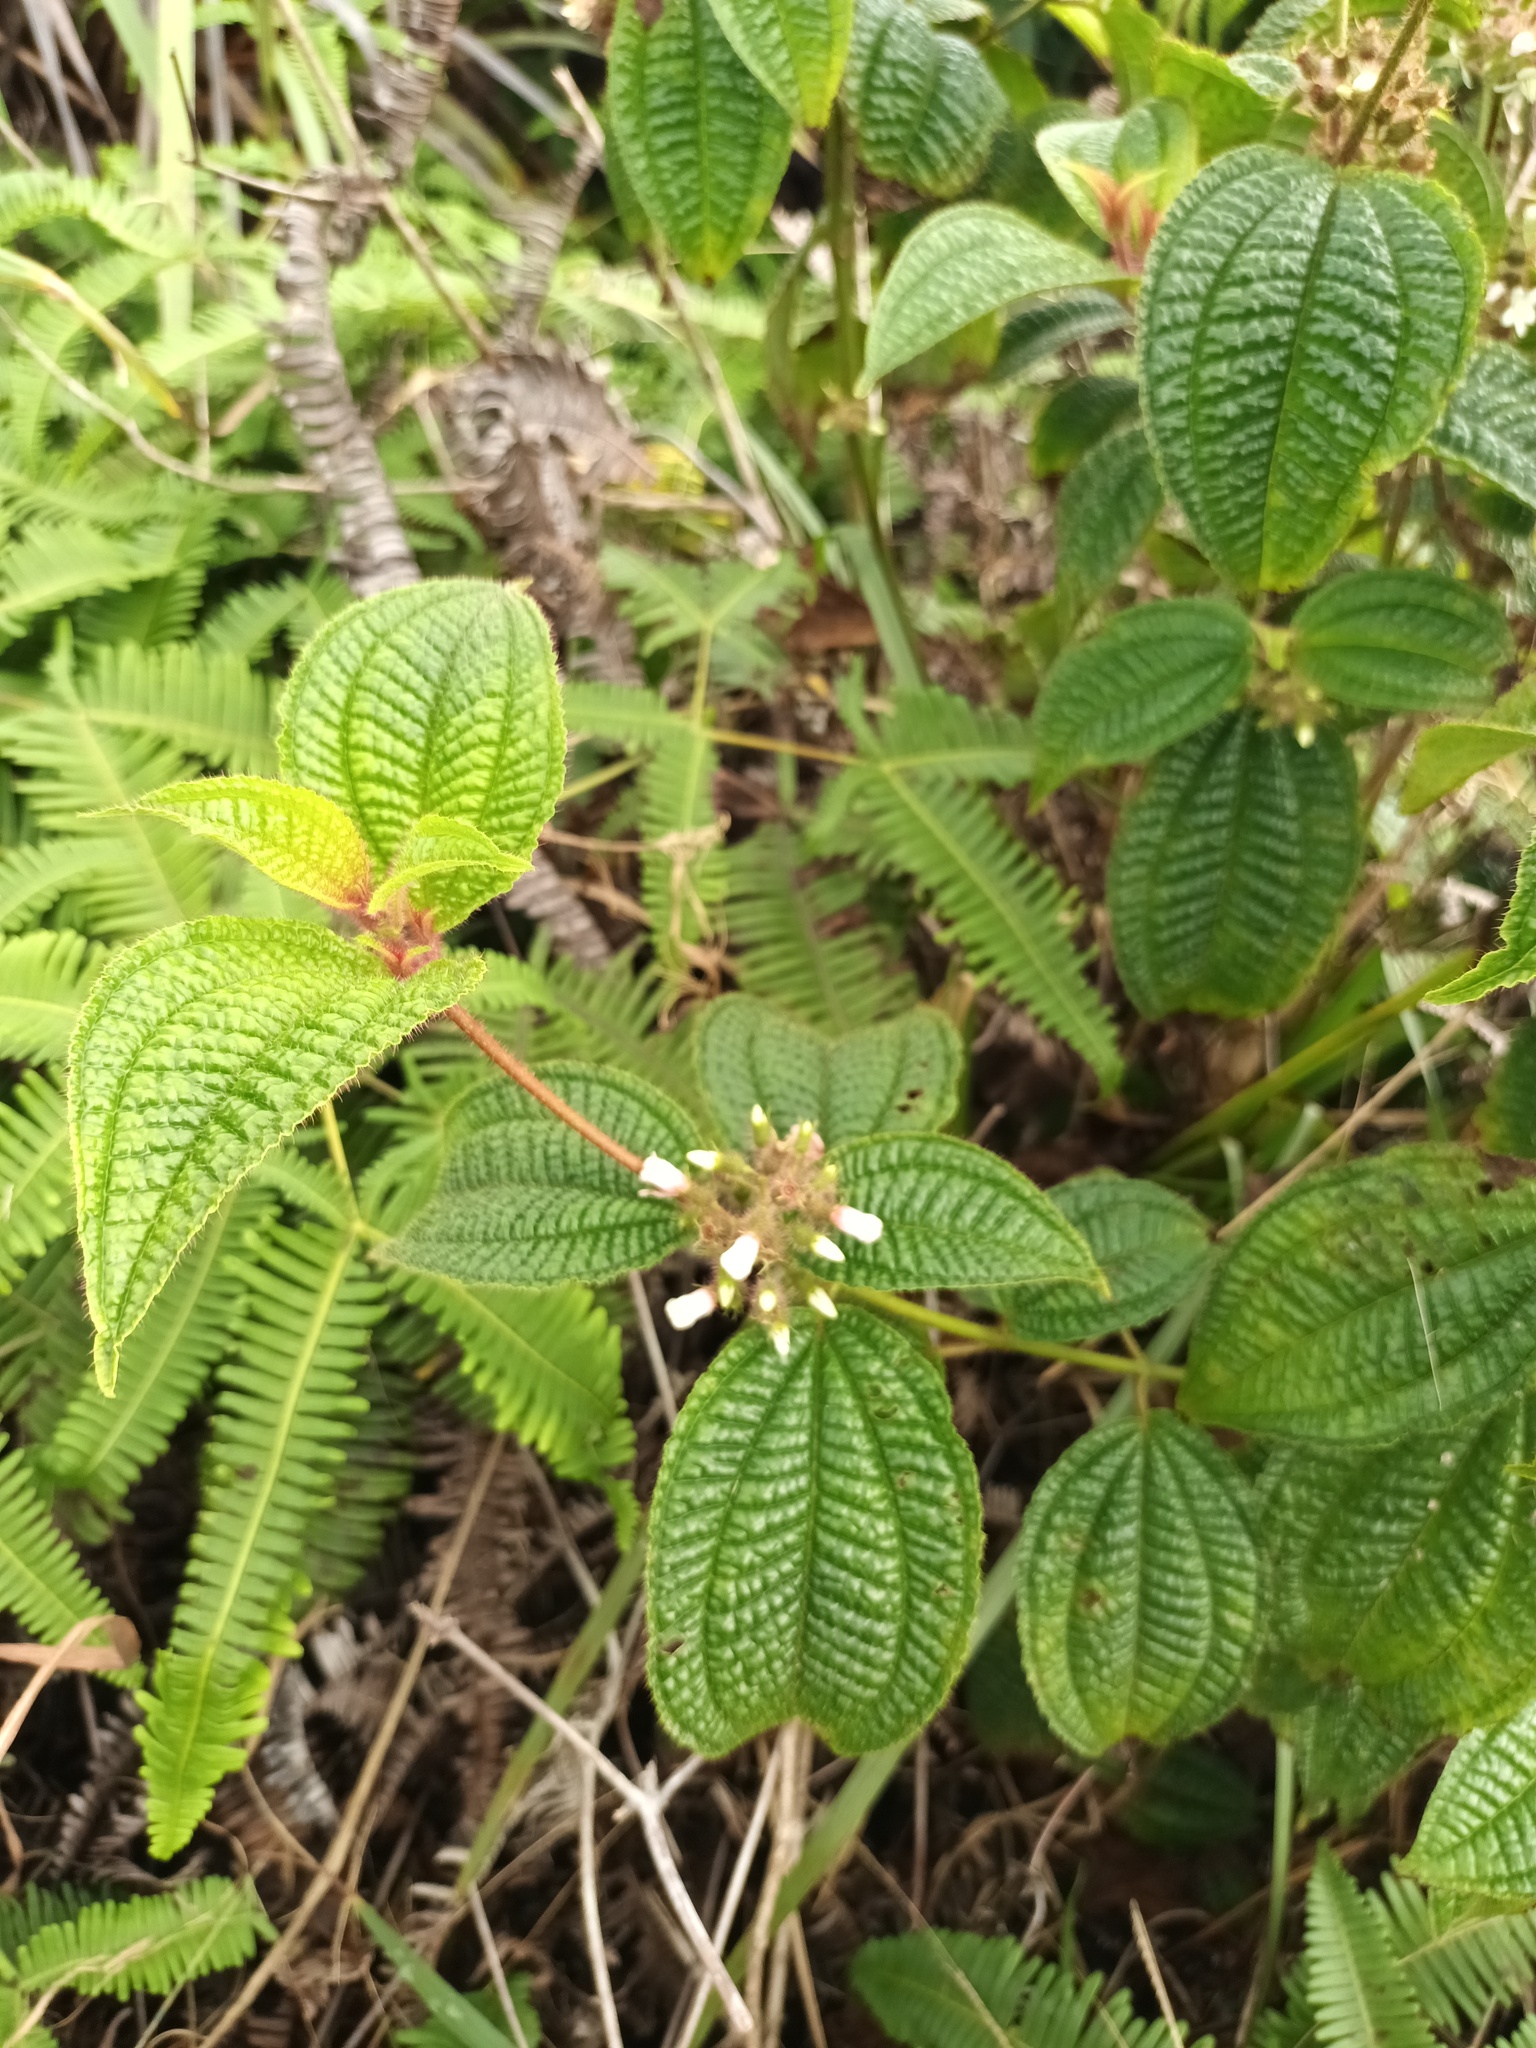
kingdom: Plantae
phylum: Tracheophyta
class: Magnoliopsida
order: Myrtales
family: Melastomataceae
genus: Miconia
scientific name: Miconia crenata
